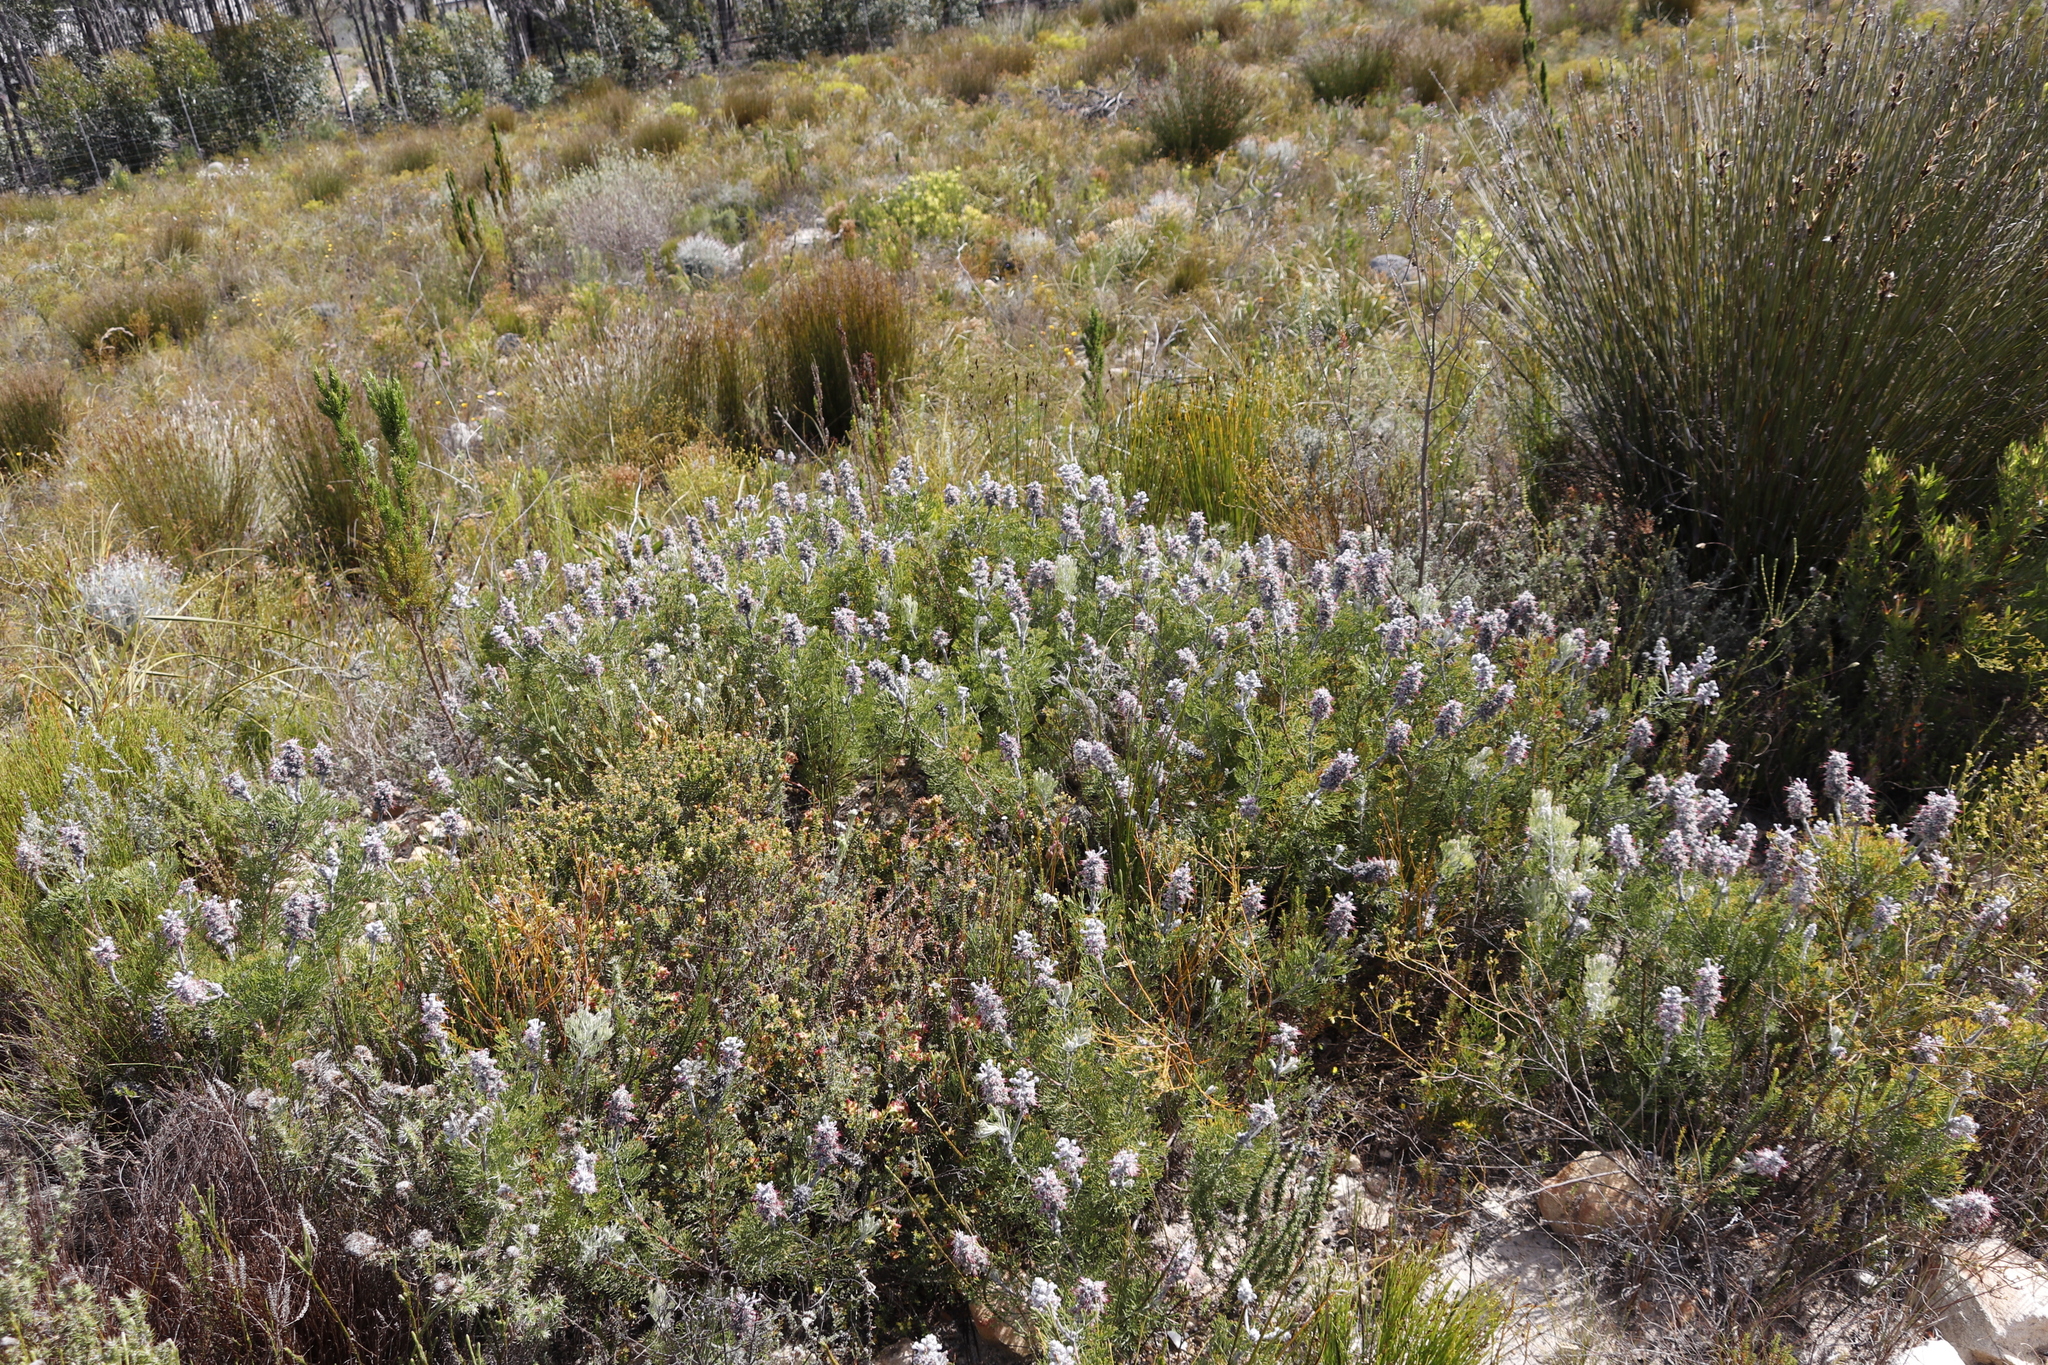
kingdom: Plantae
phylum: Tracheophyta
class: Magnoliopsida
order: Proteales
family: Proteaceae
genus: Paranomus
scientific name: Paranomus bolusii
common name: Overberg sceptre
